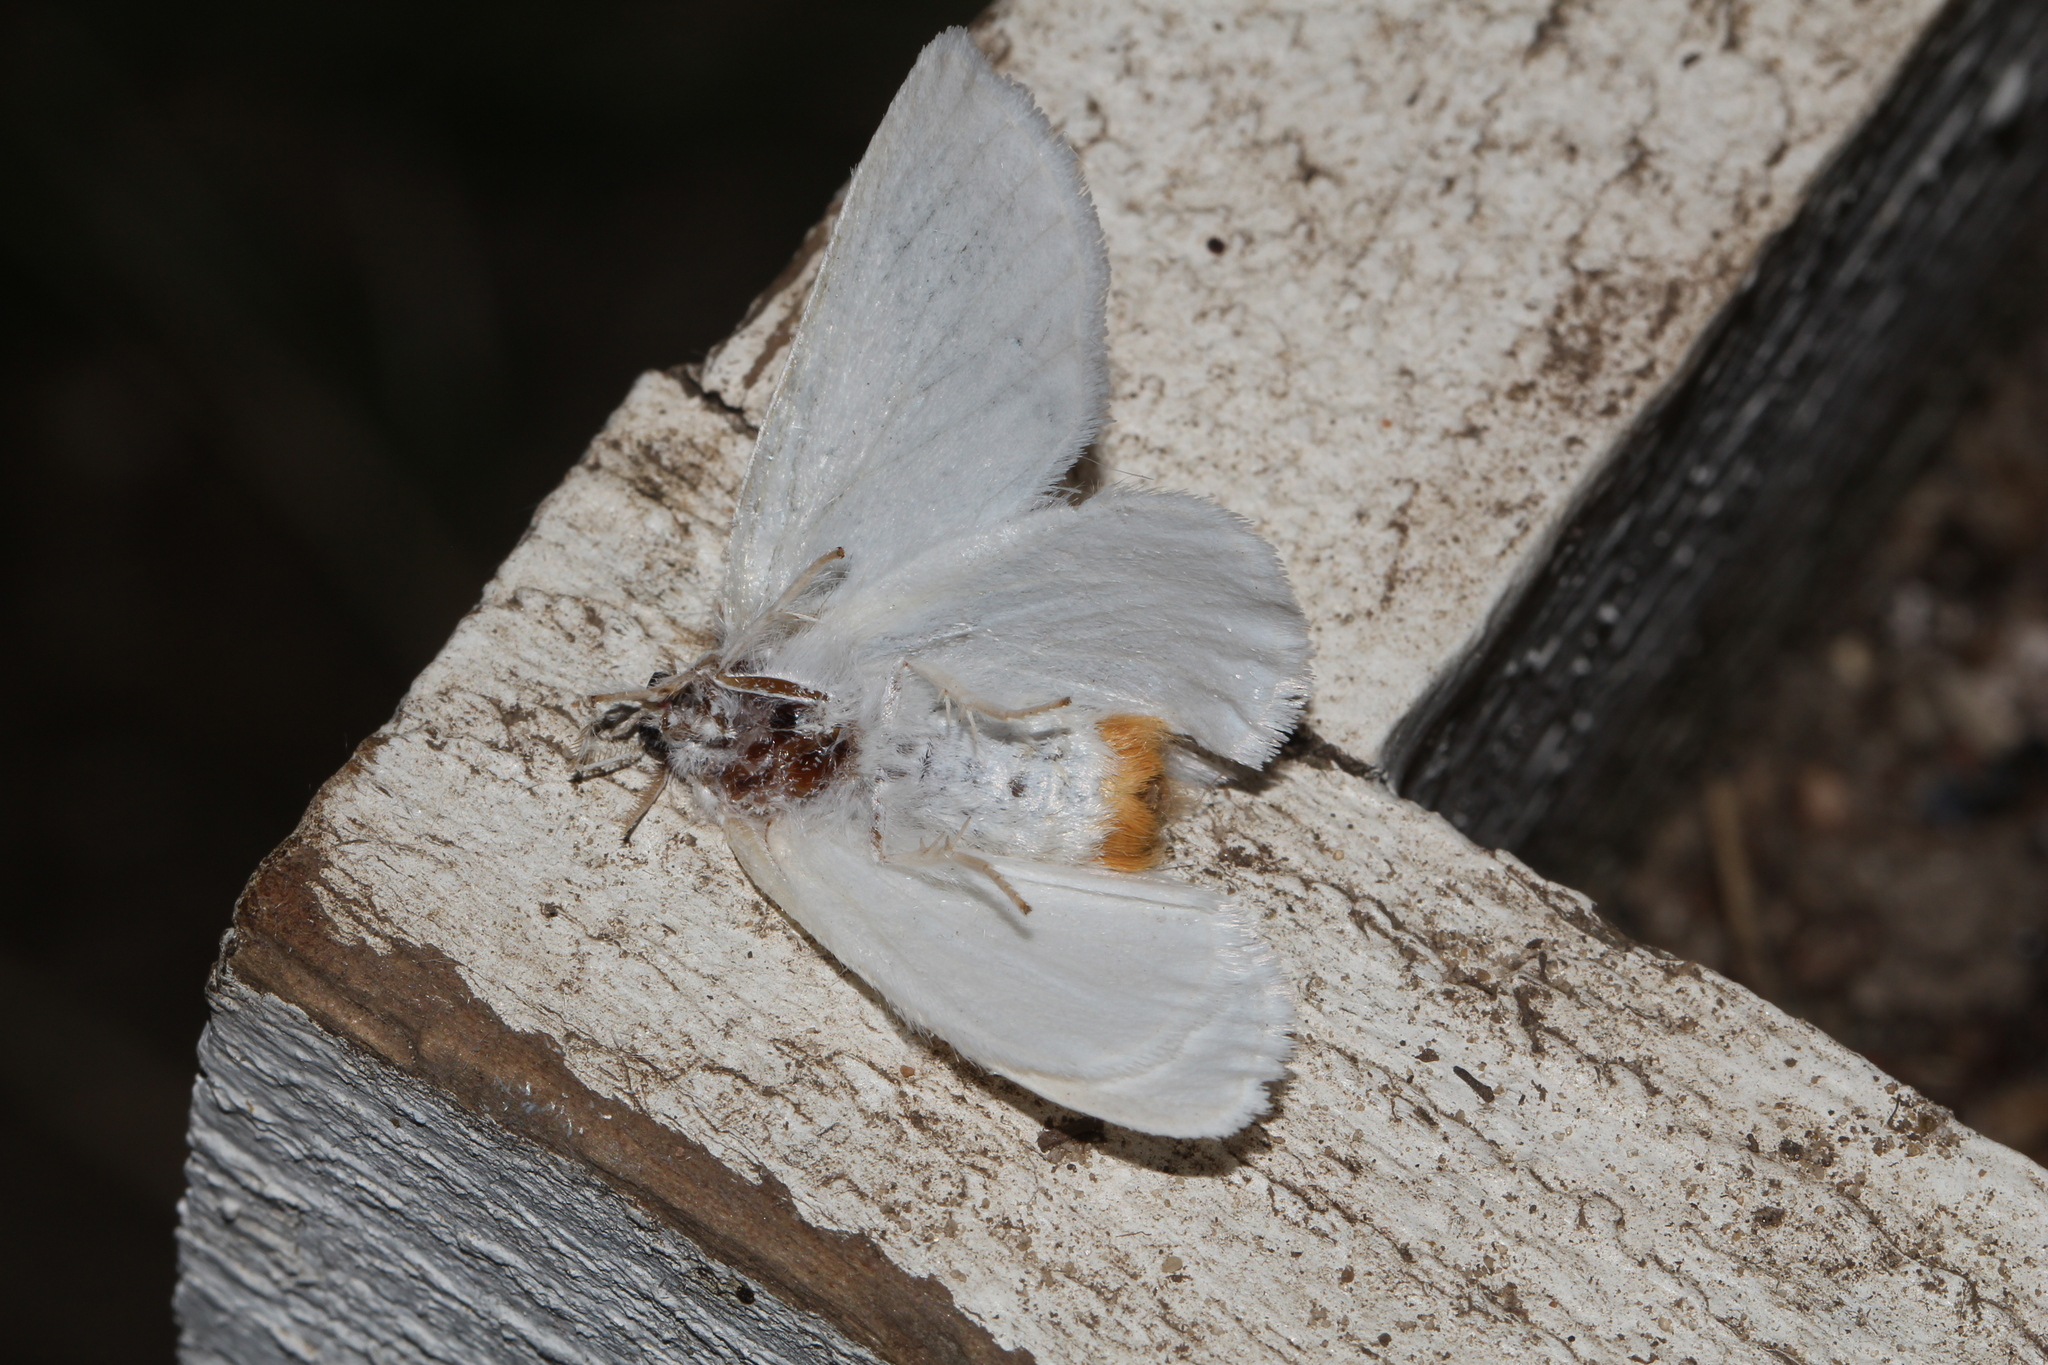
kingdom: Animalia
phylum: Arthropoda
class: Insecta
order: Lepidoptera
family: Erebidae
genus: Sphrageidus
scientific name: Sphrageidus similis
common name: Yellow-tail
